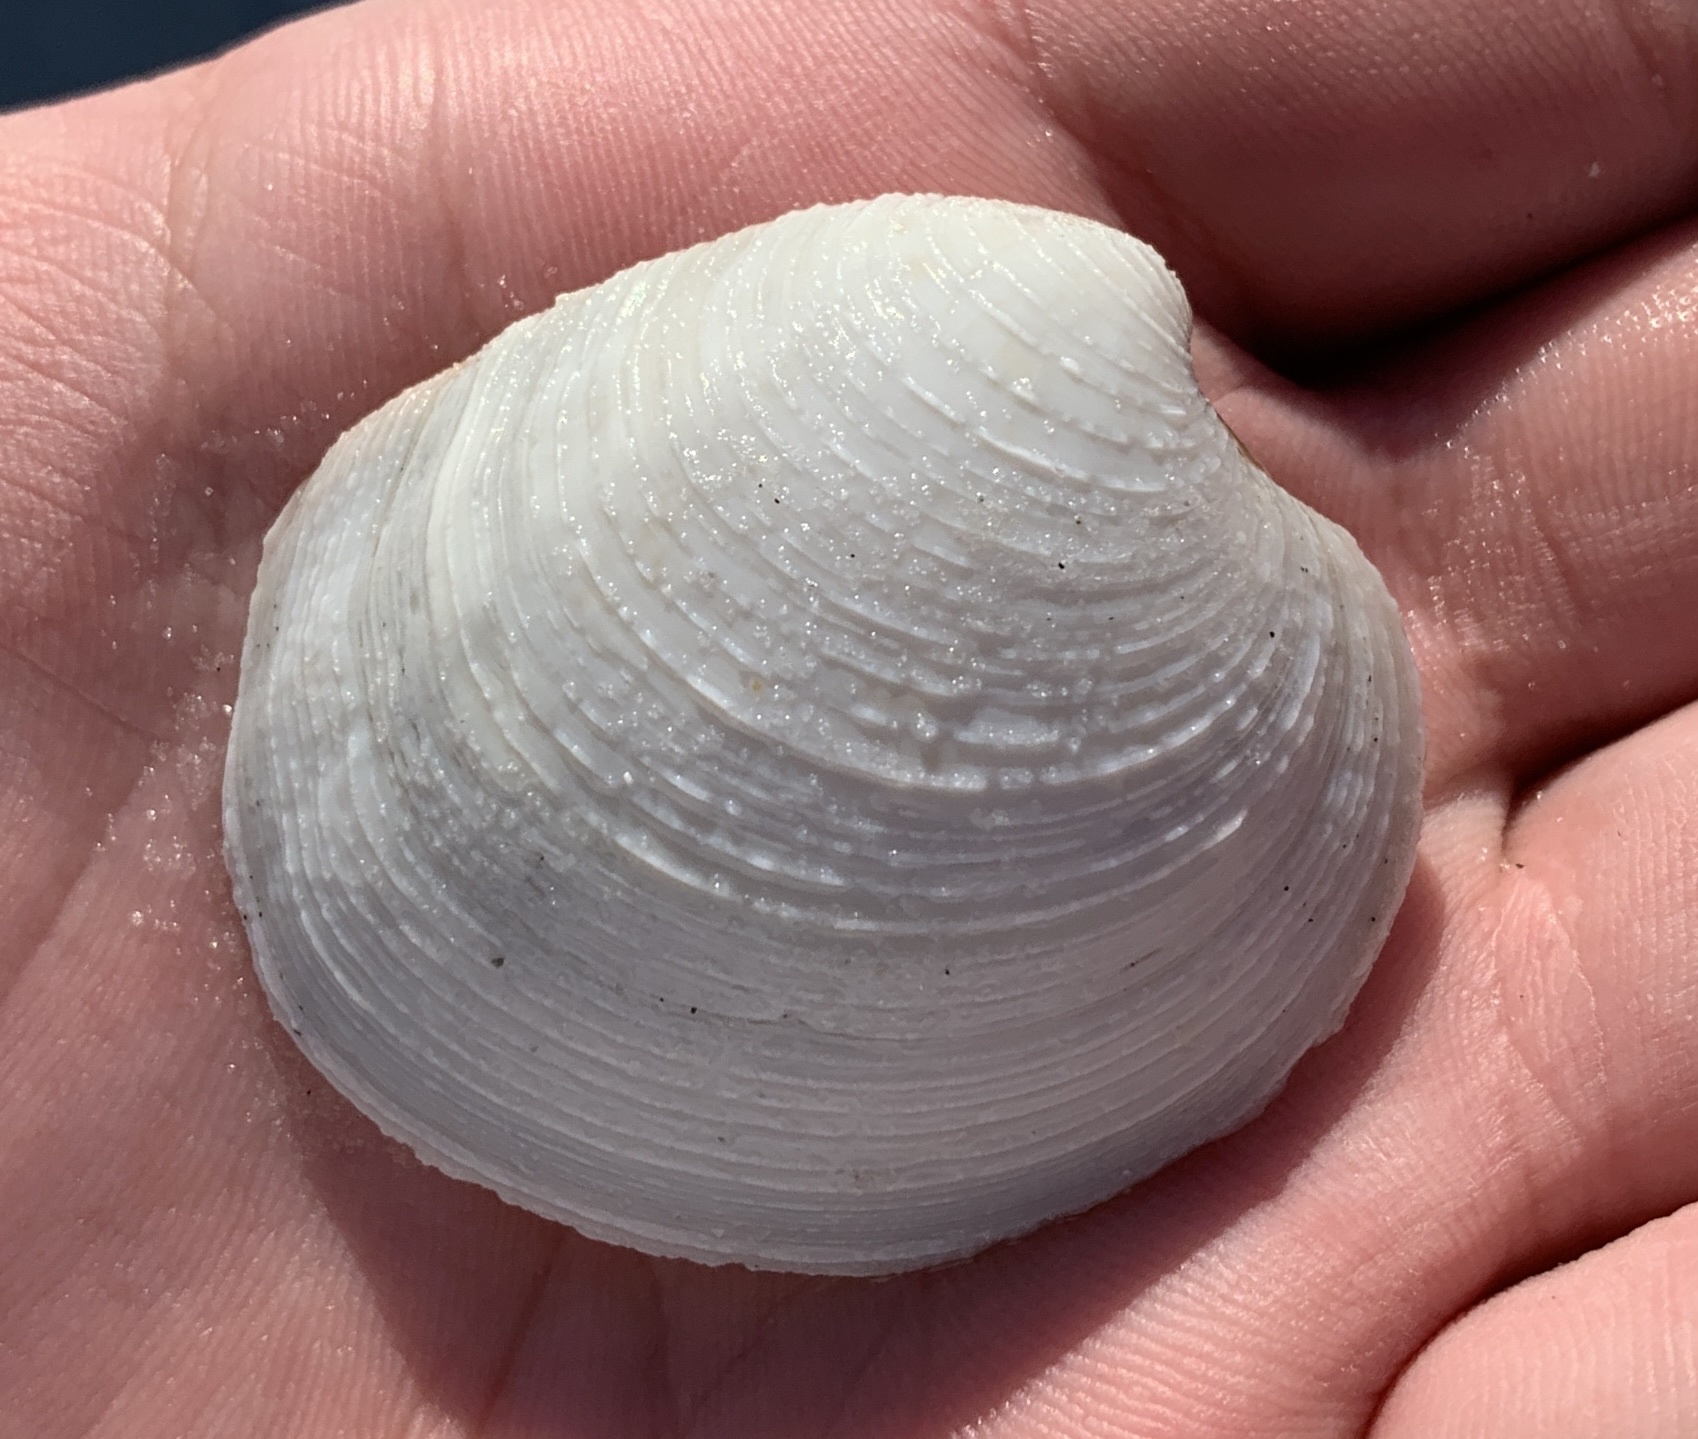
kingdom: Animalia
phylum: Mollusca
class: Bivalvia
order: Venerida
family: Veneridae
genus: Mercenaria
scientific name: Mercenaria campechiensis
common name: Südliche quahog-muschel
